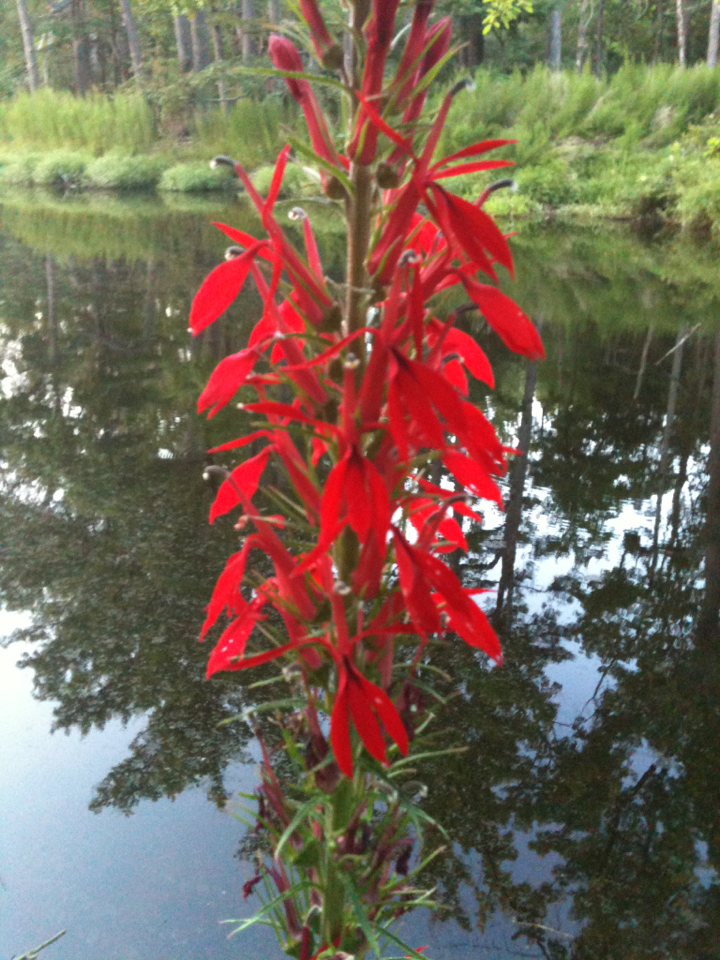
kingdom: Plantae
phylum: Tracheophyta
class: Magnoliopsida
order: Asterales
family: Campanulaceae
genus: Lobelia
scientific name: Lobelia cardinalis
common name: Cardinal flower
